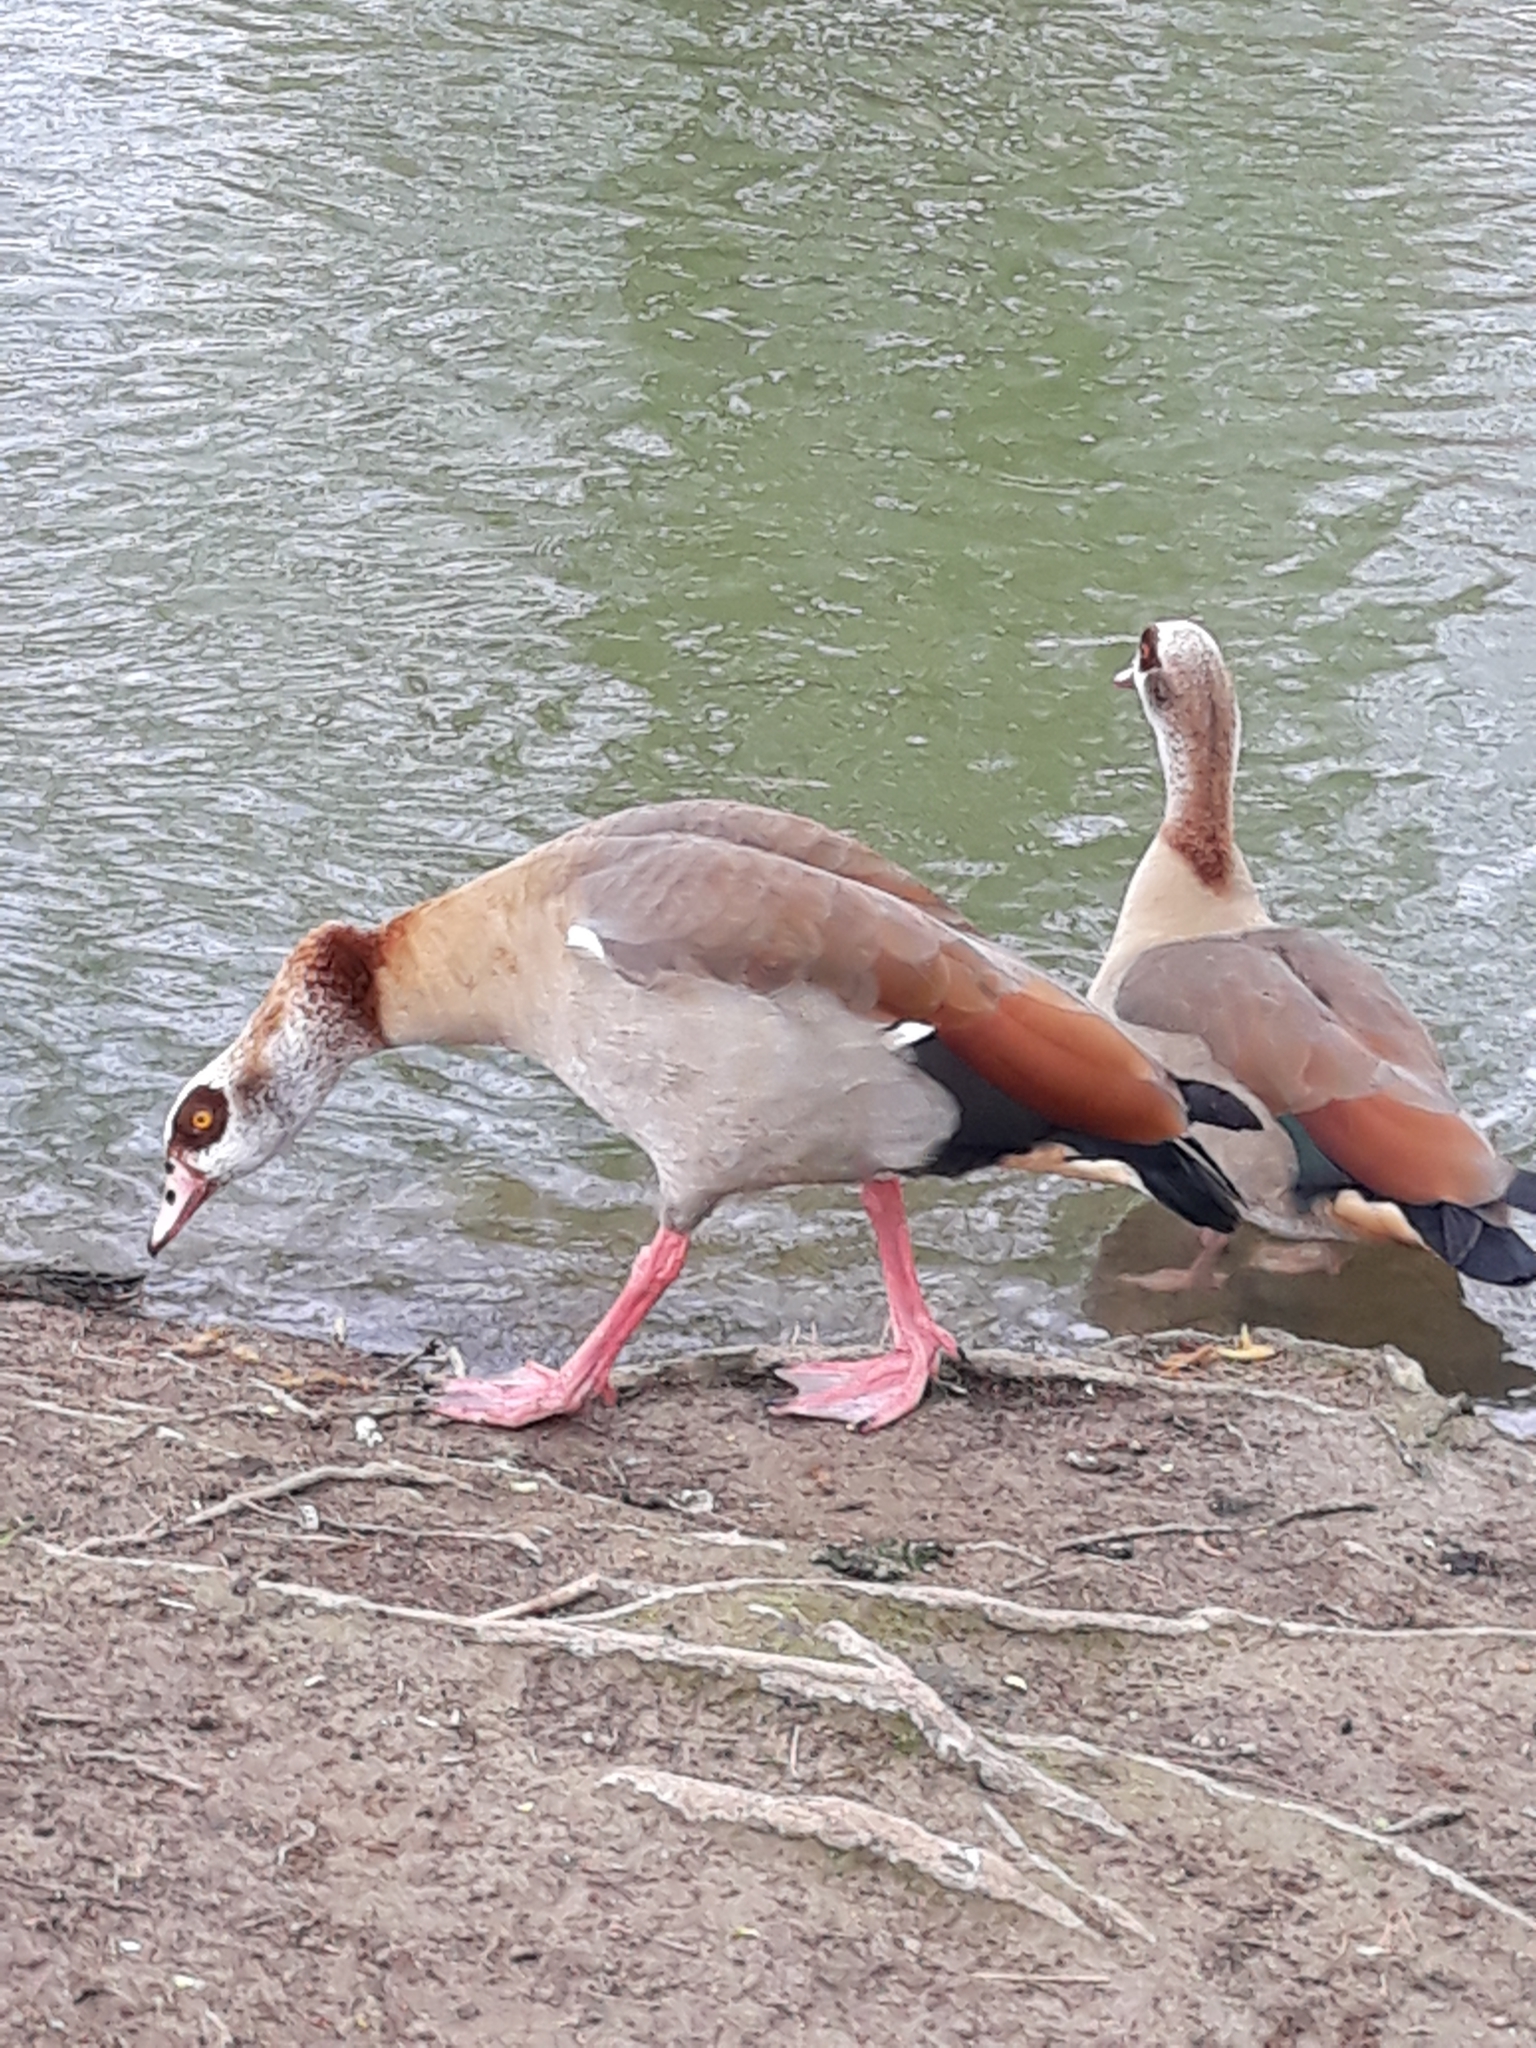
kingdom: Animalia
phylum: Chordata
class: Aves
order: Anseriformes
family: Anatidae
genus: Alopochen
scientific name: Alopochen aegyptiaca
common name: Egyptian goose
